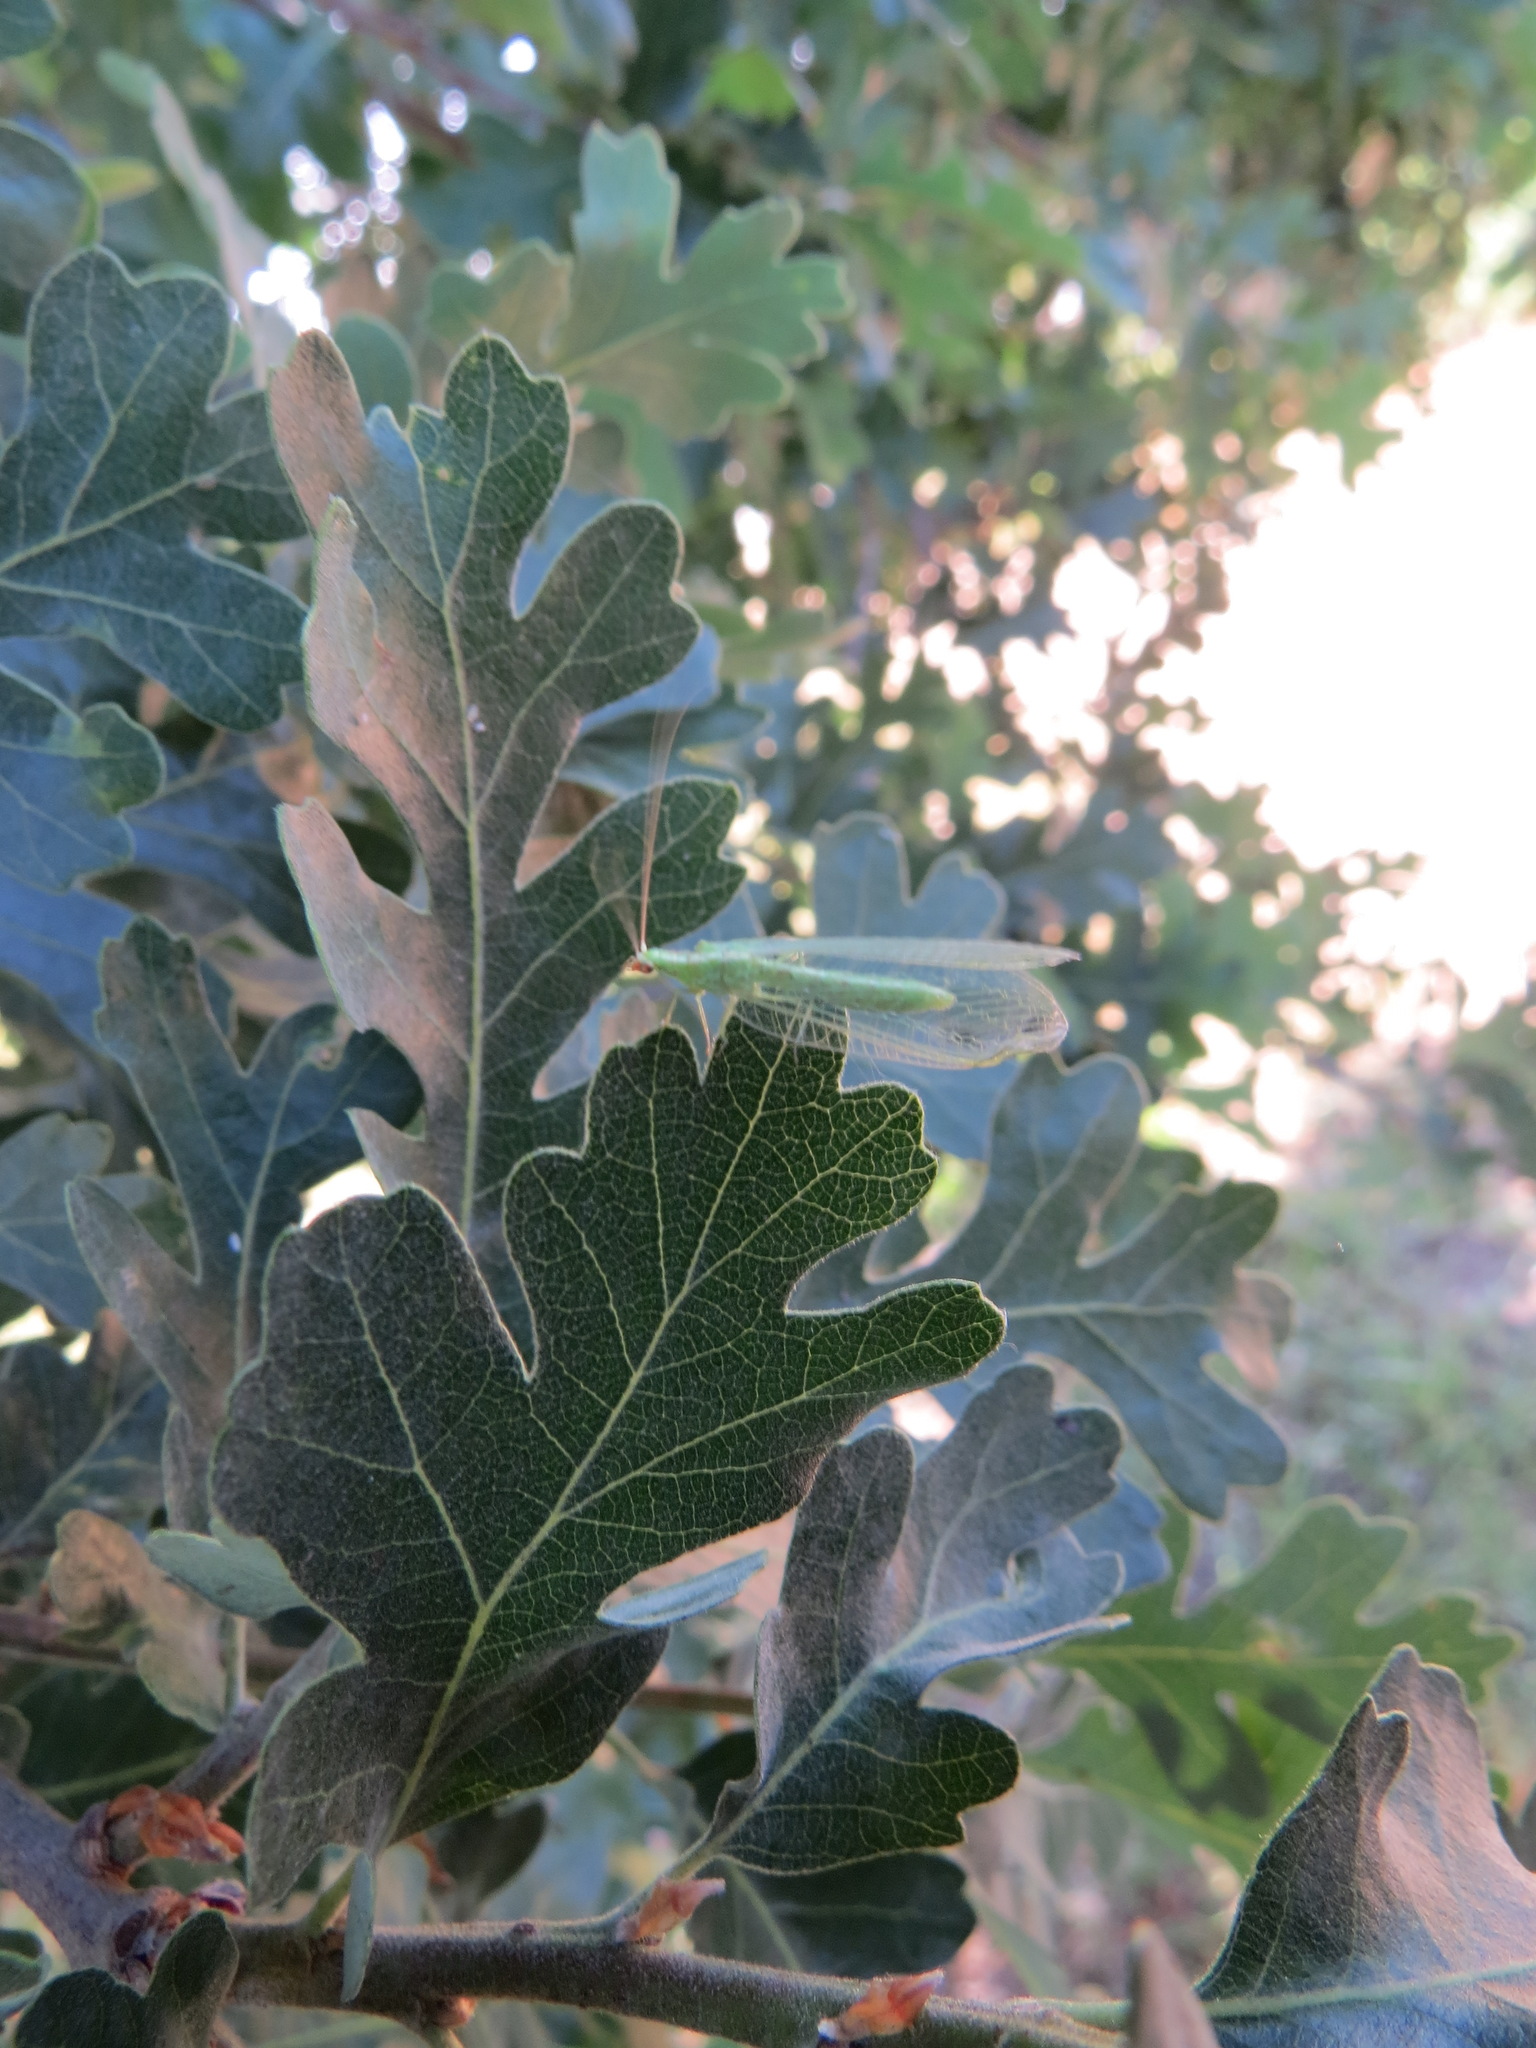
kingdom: Plantae
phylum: Tracheophyta
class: Magnoliopsida
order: Fagales
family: Fagaceae
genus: Quercus
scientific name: Quercus lobata
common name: Valley oak
